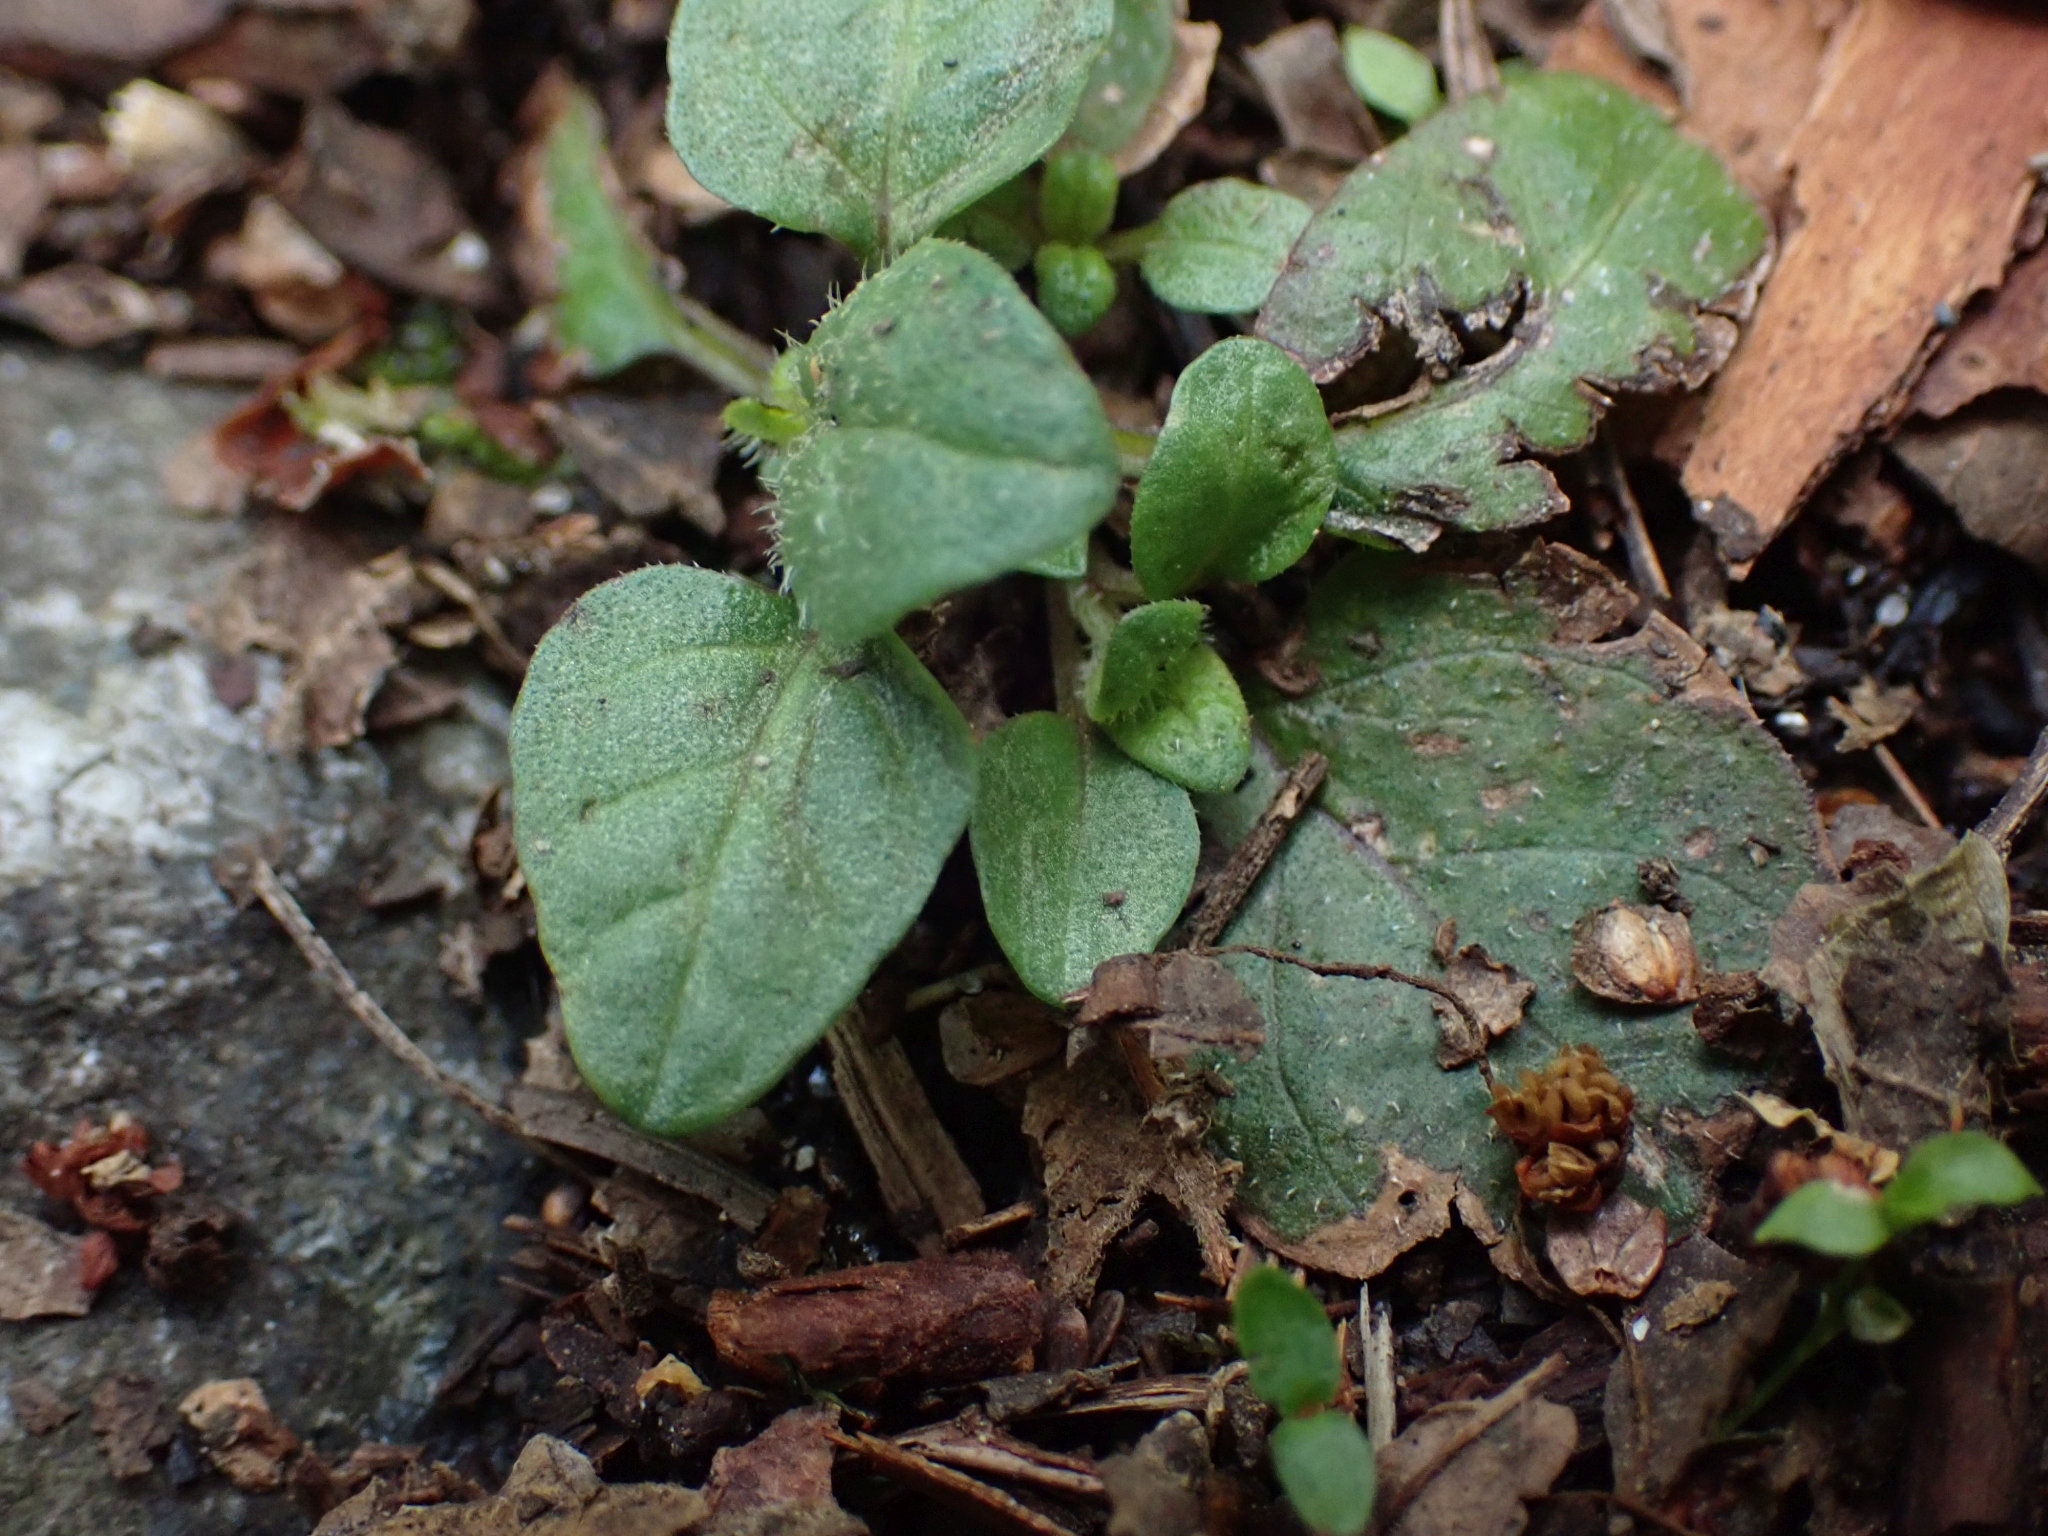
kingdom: Plantae
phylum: Tracheophyta
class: Magnoliopsida
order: Lamiales
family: Lamiaceae
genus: Prunella
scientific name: Prunella vulgaris
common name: Heal-all
